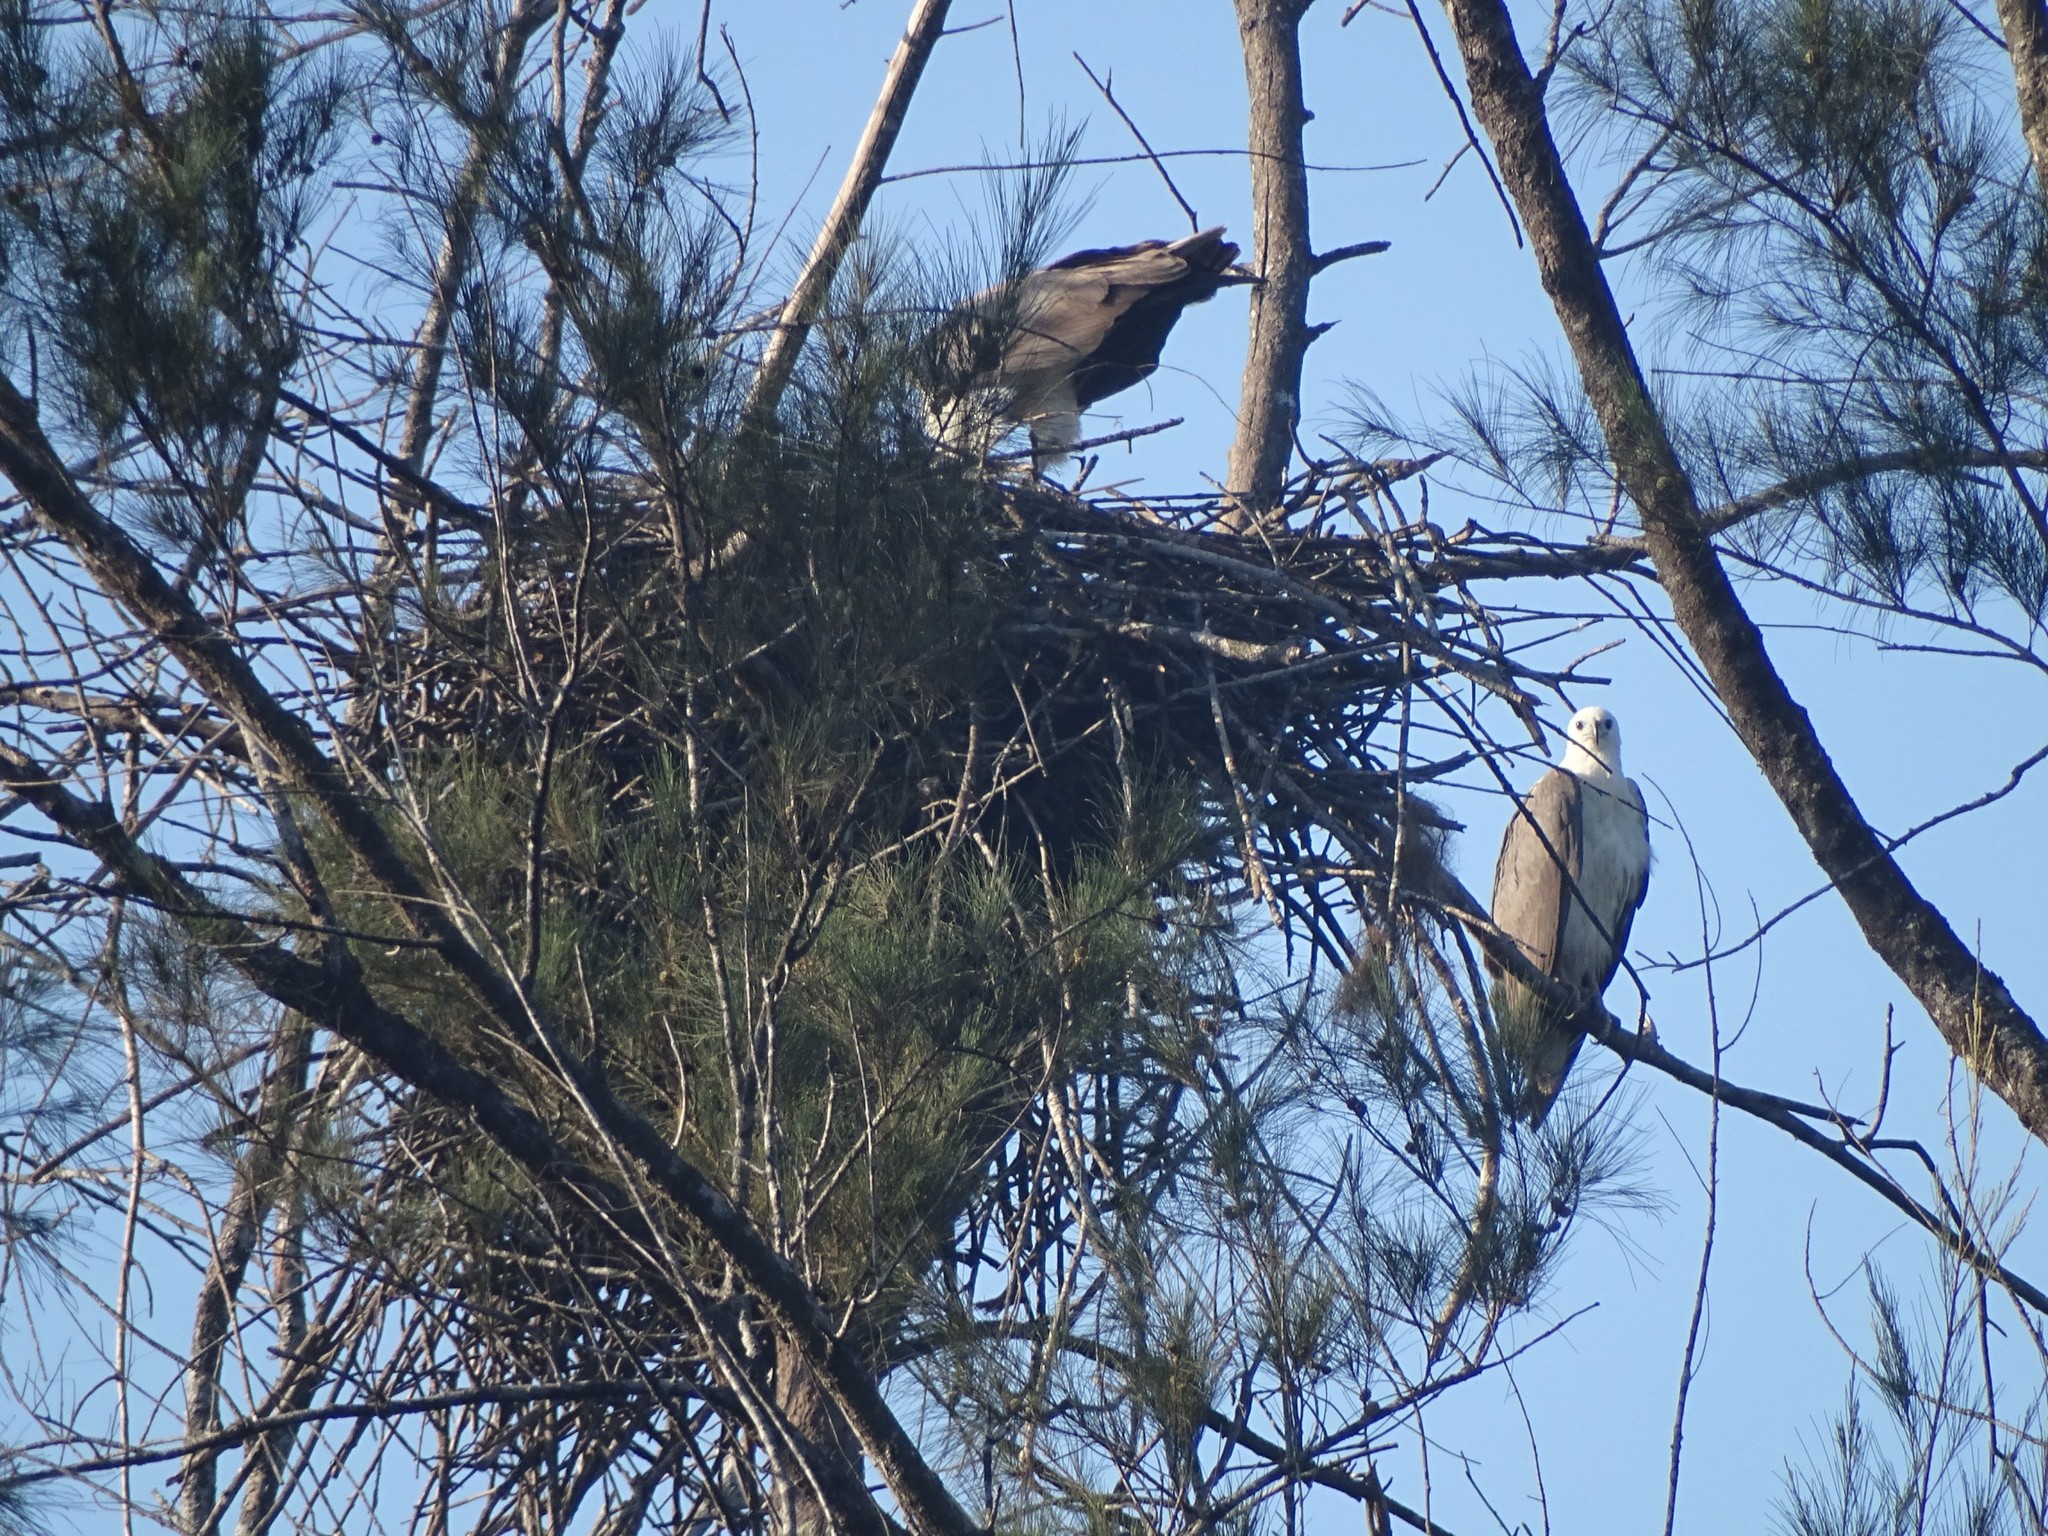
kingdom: Animalia
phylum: Chordata
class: Aves
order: Accipitriformes
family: Accipitridae
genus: Haliaeetus
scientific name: Haliaeetus leucogaster
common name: White-bellied sea eagle
